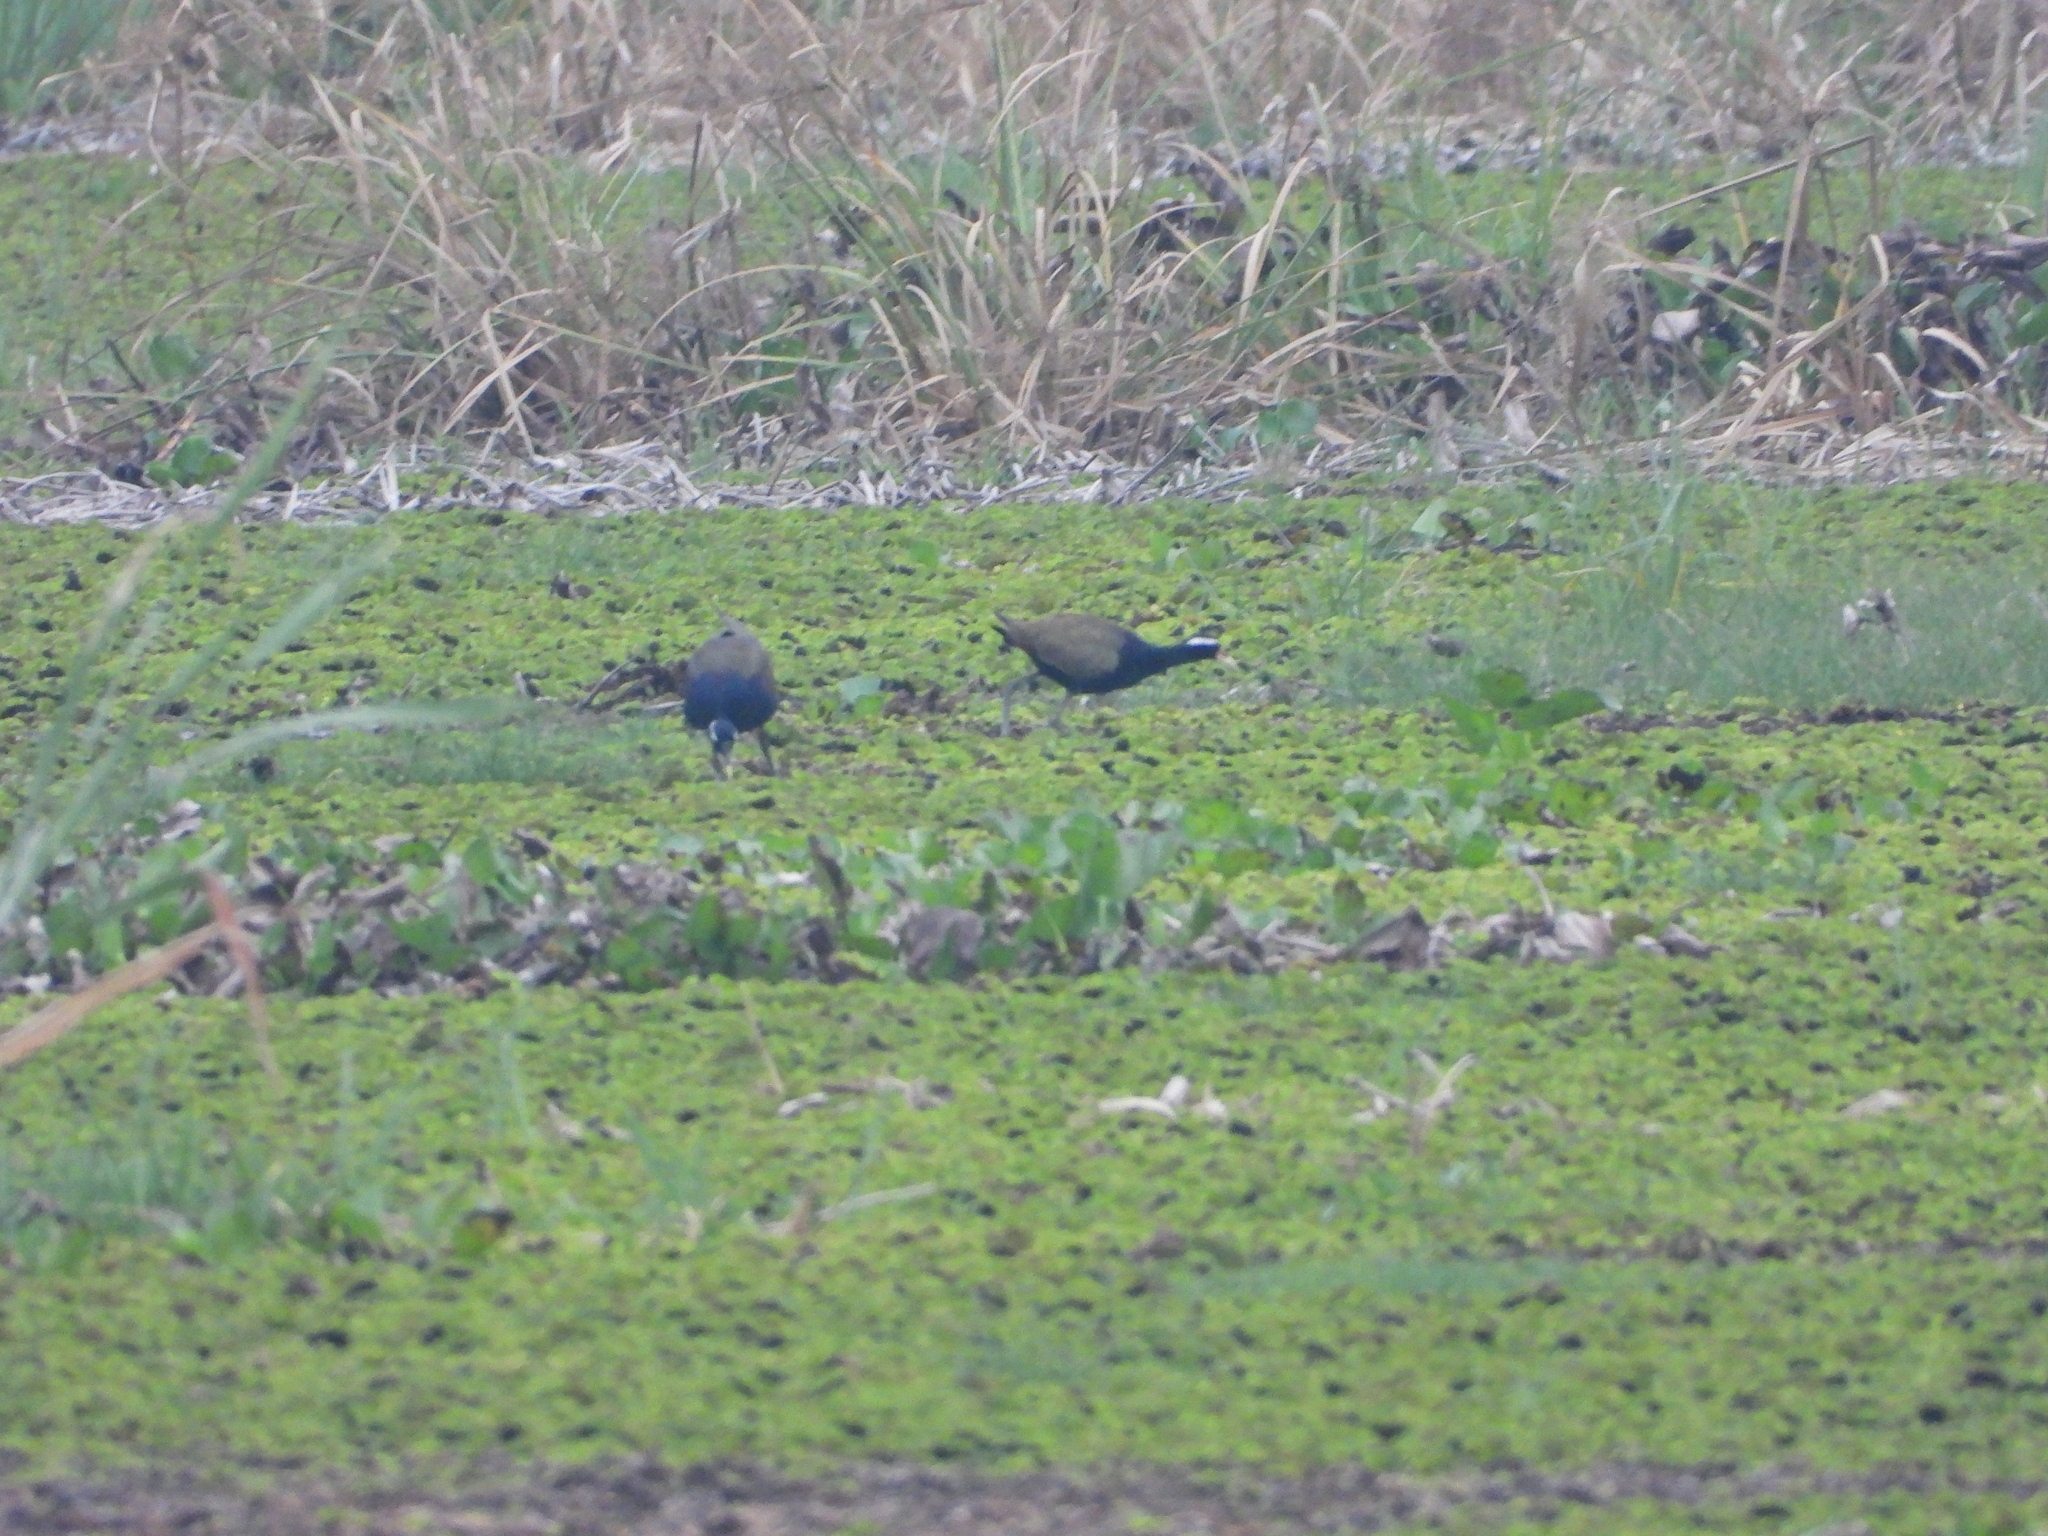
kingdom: Animalia
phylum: Chordata
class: Aves
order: Charadriiformes
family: Jacanidae
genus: Metopidius
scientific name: Metopidius indicus
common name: Bronze-winged jacana
